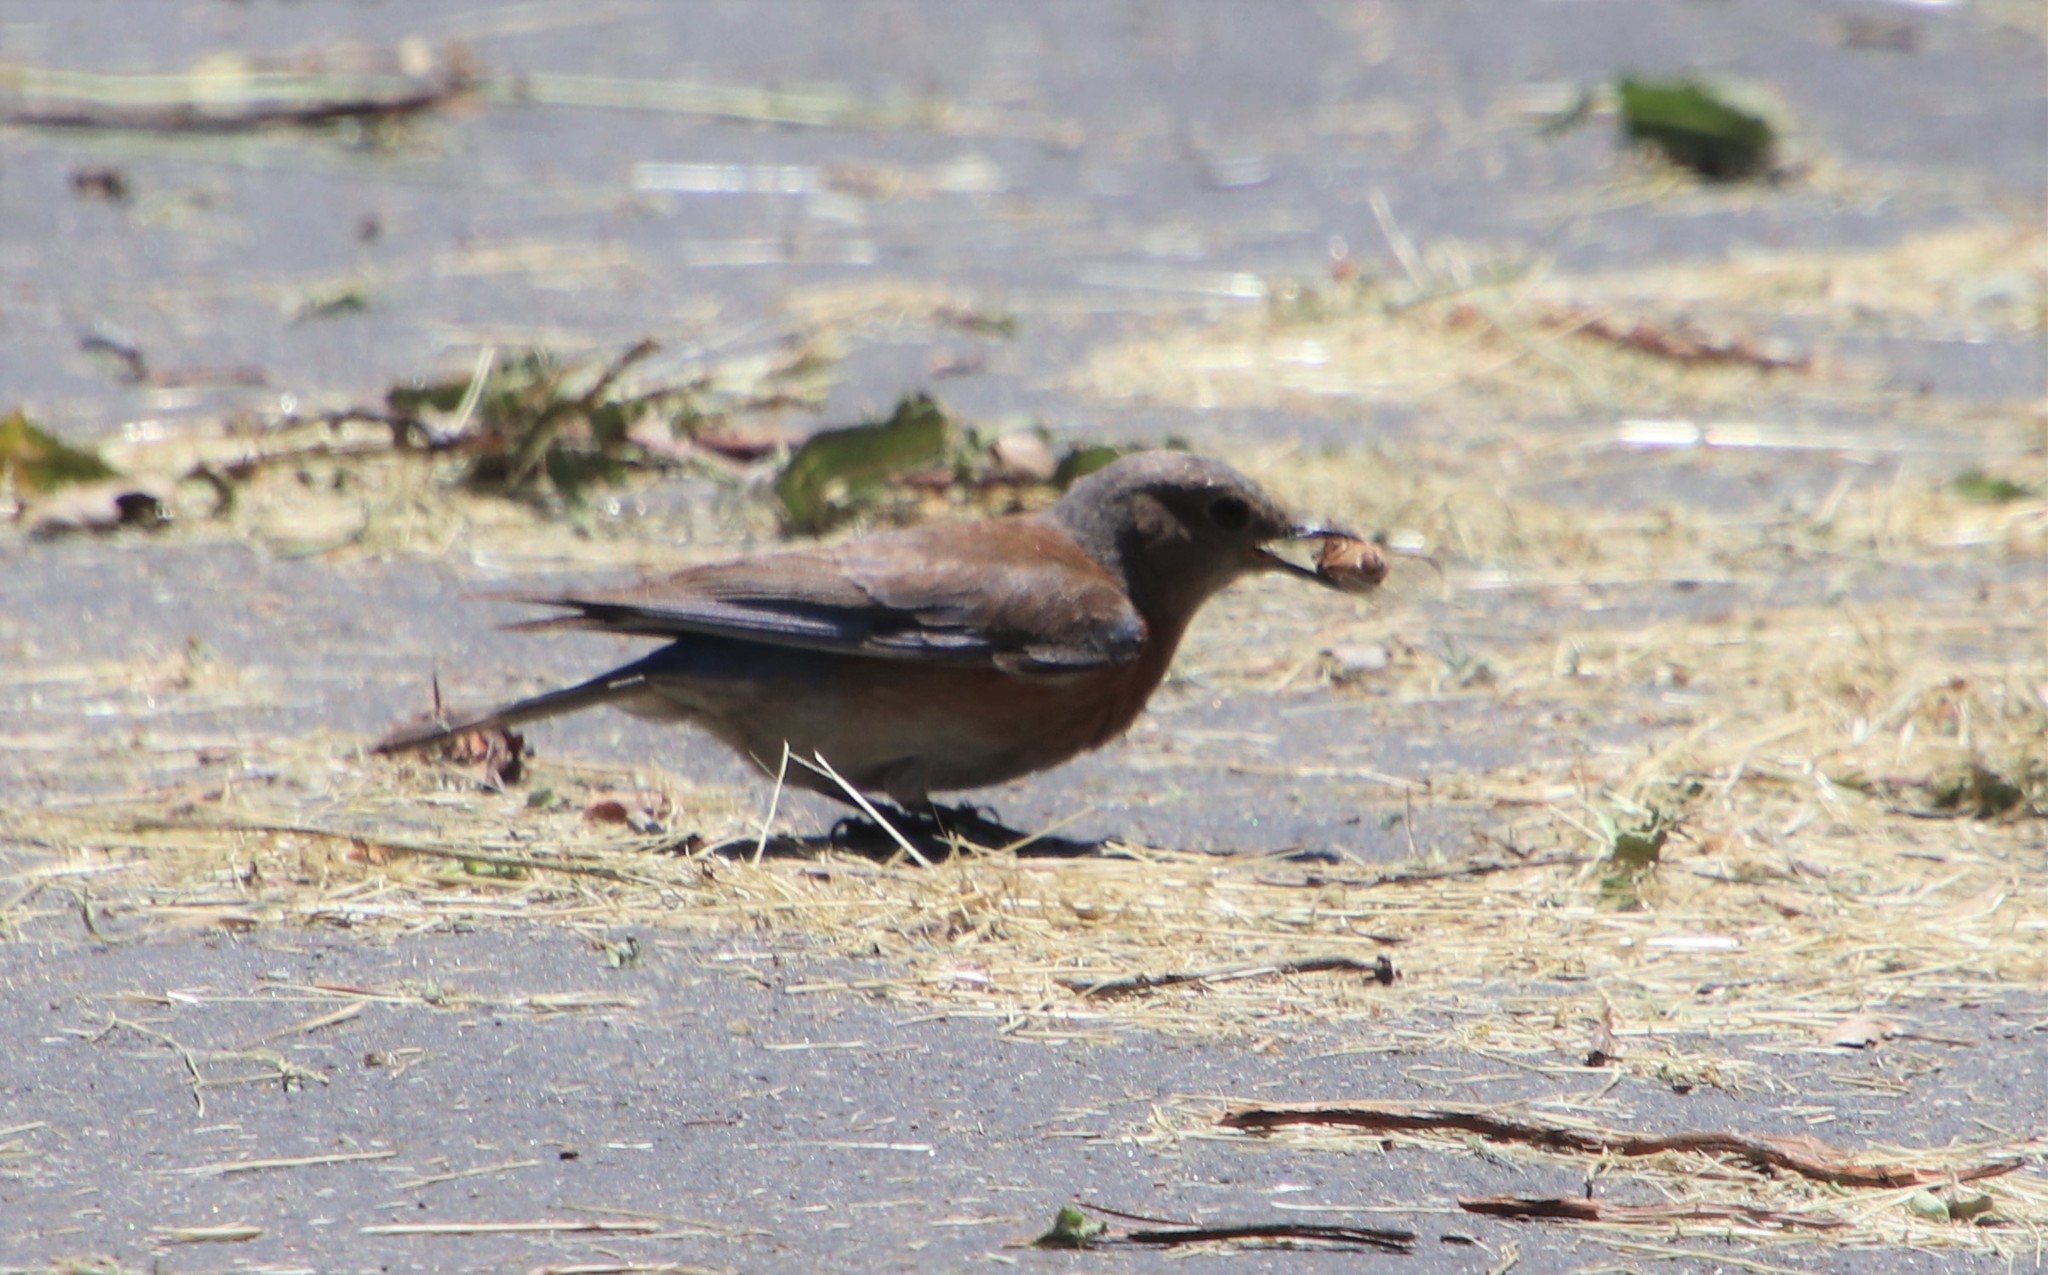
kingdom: Animalia
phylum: Chordata
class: Aves
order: Passeriformes
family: Turdidae
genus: Sialia
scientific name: Sialia mexicana
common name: Western bluebird
